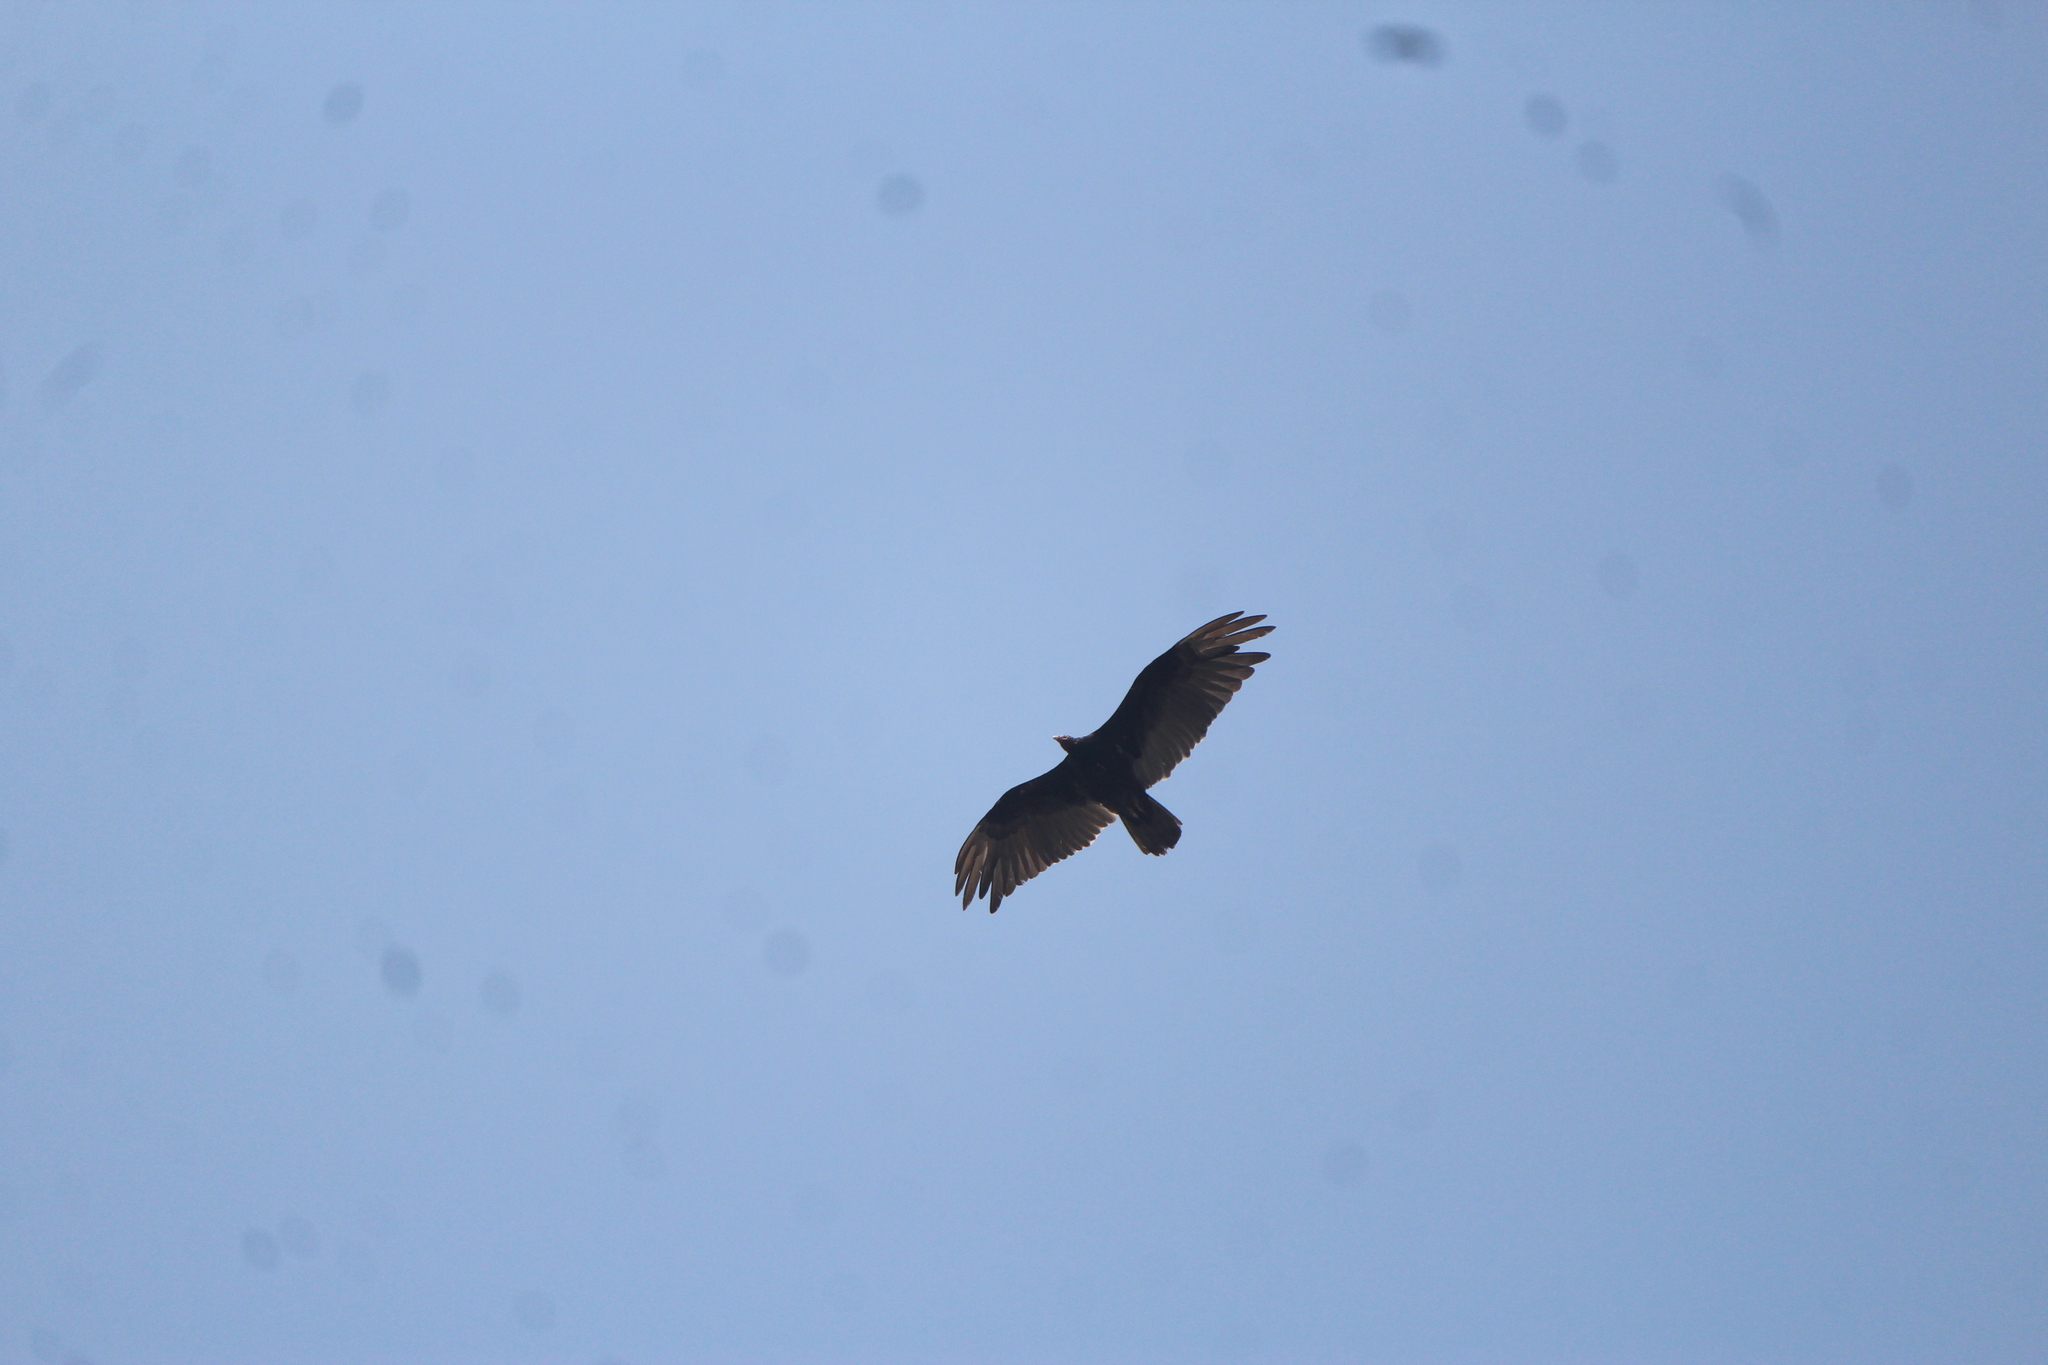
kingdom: Animalia
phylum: Chordata
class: Aves
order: Accipitriformes
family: Cathartidae
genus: Cathartes
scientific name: Cathartes aura
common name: Turkey vulture
